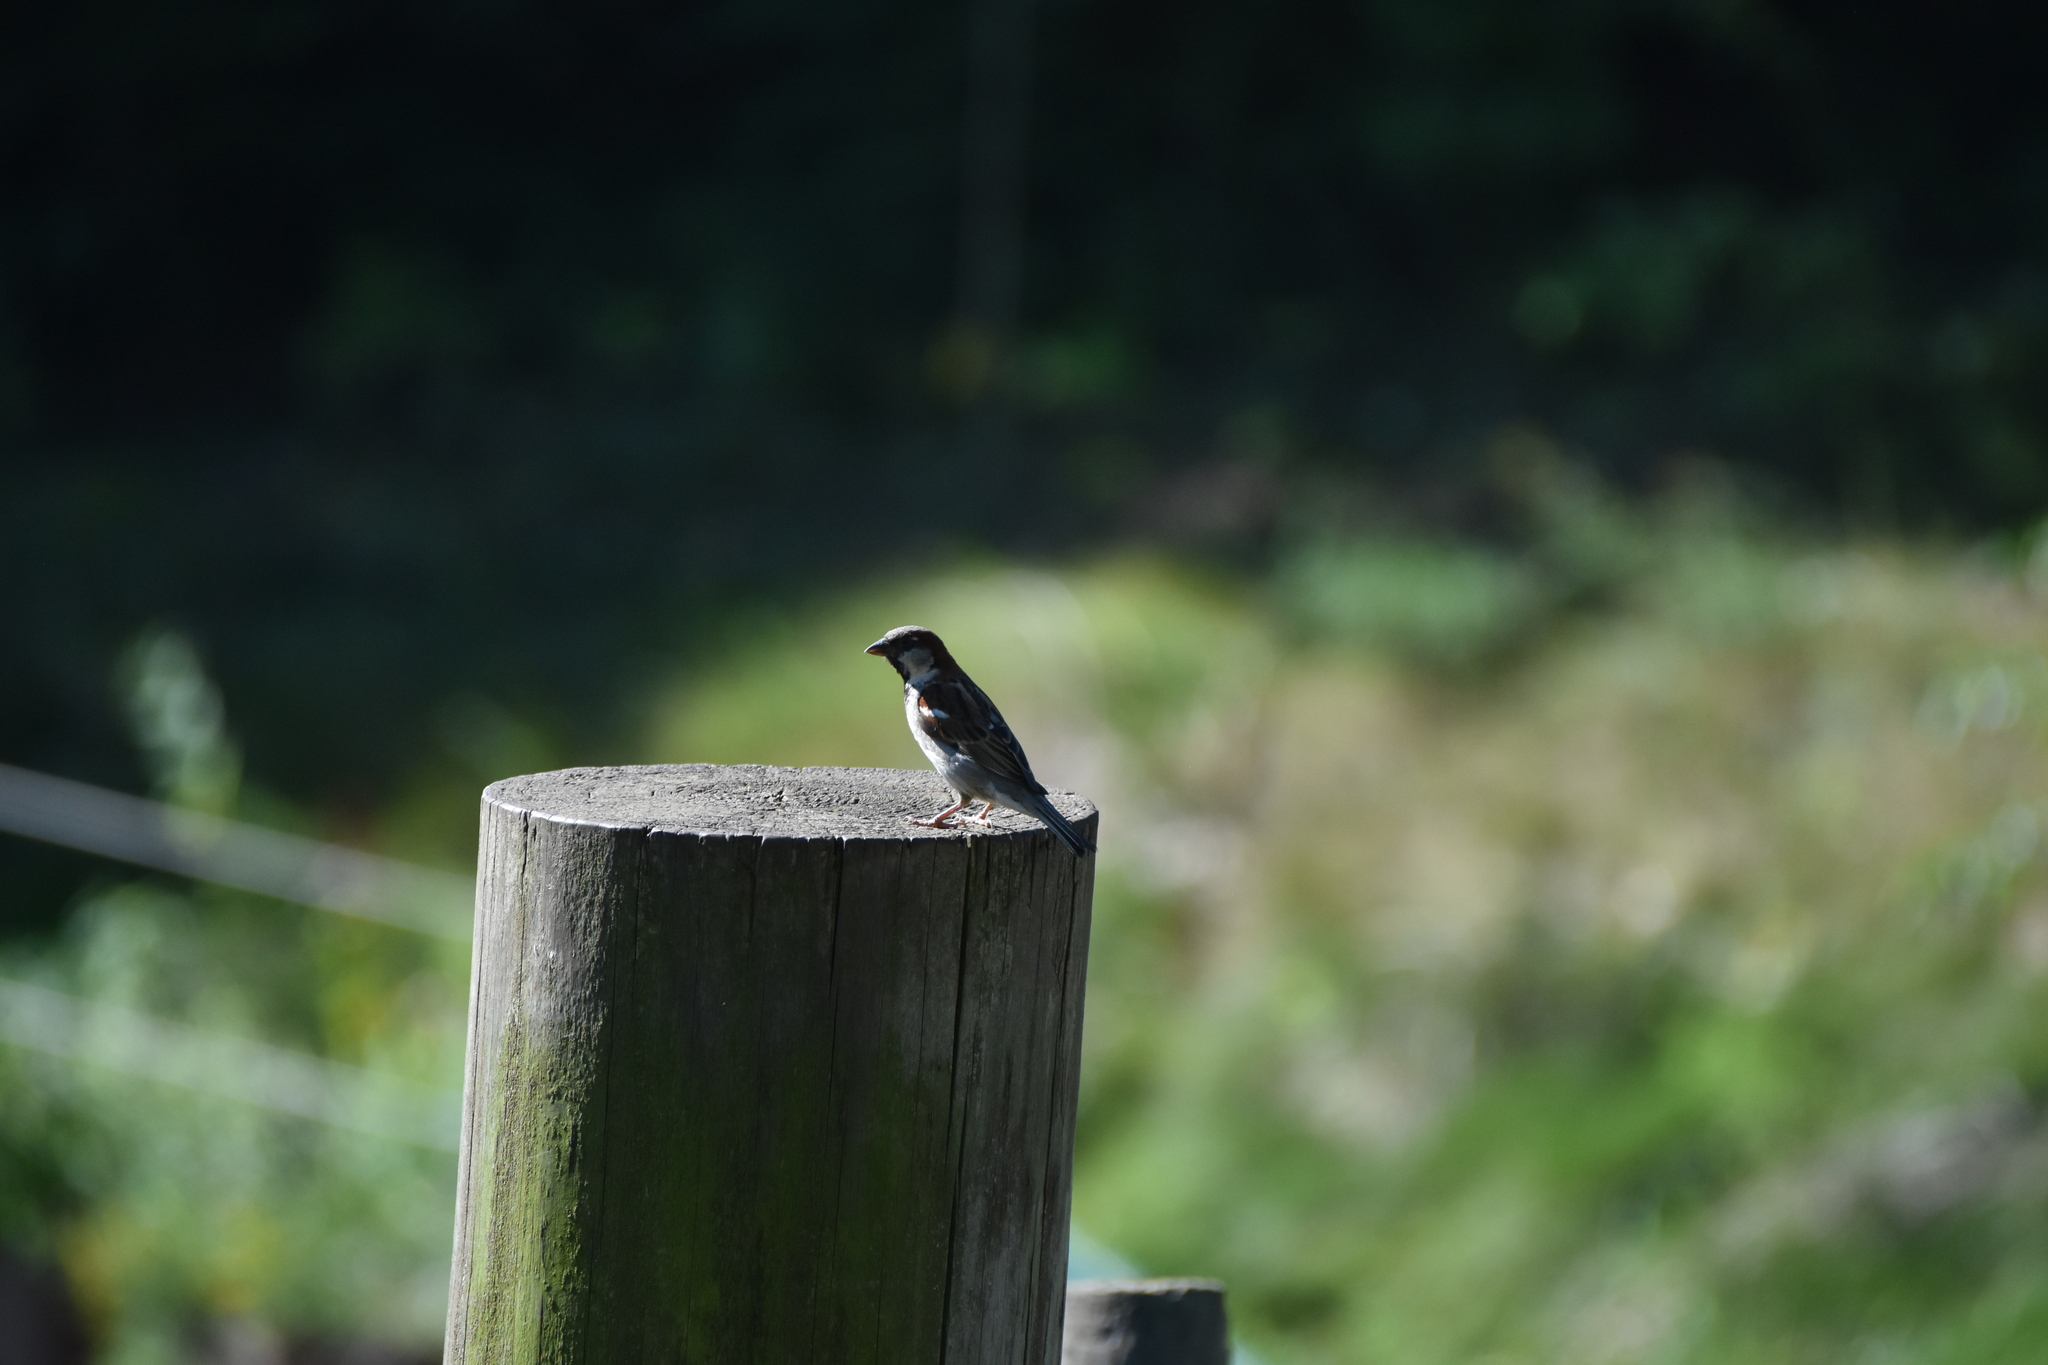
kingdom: Animalia
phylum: Chordata
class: Aves
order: Passeriformes
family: Passeridae
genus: Passer
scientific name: Passer domesticus
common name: House sparrow
